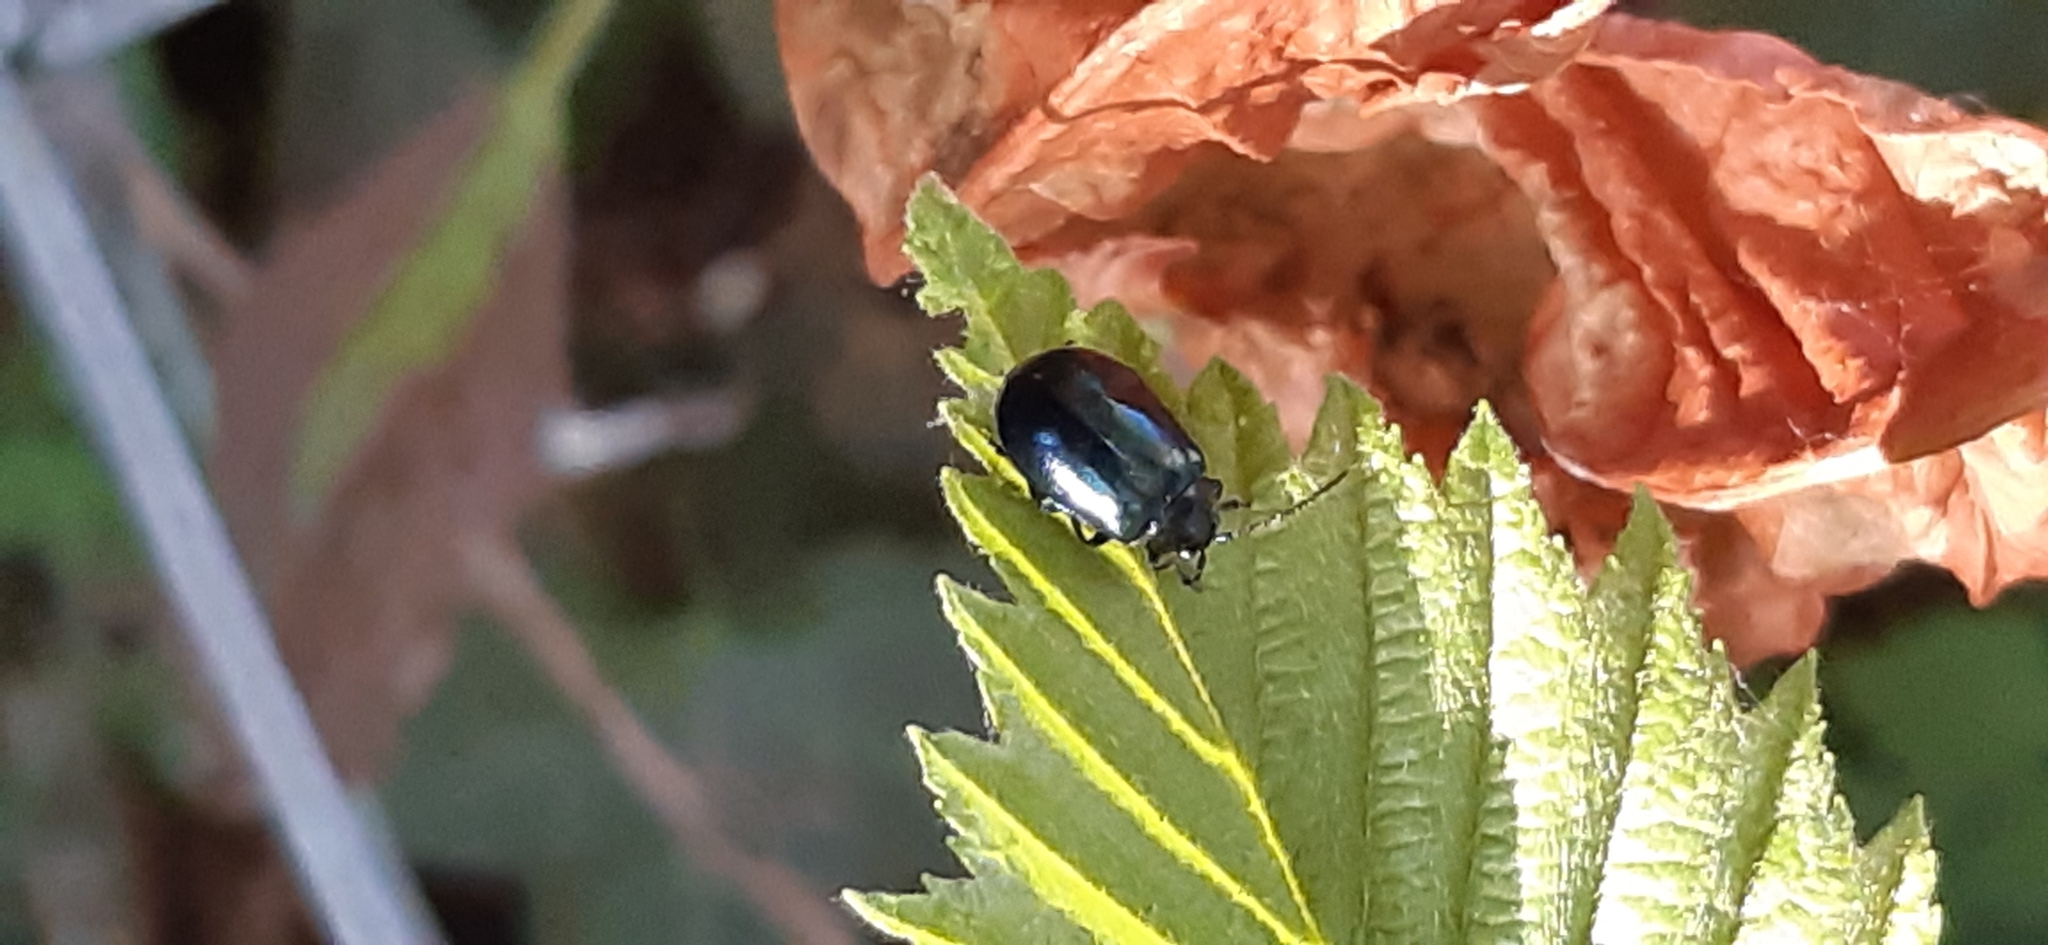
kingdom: Animalia
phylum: Arthropoda
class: Insecta
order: Coleoptera
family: Chrysomelidae
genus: Agelastica
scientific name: Agelastica alni
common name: Alder leaf beetle
